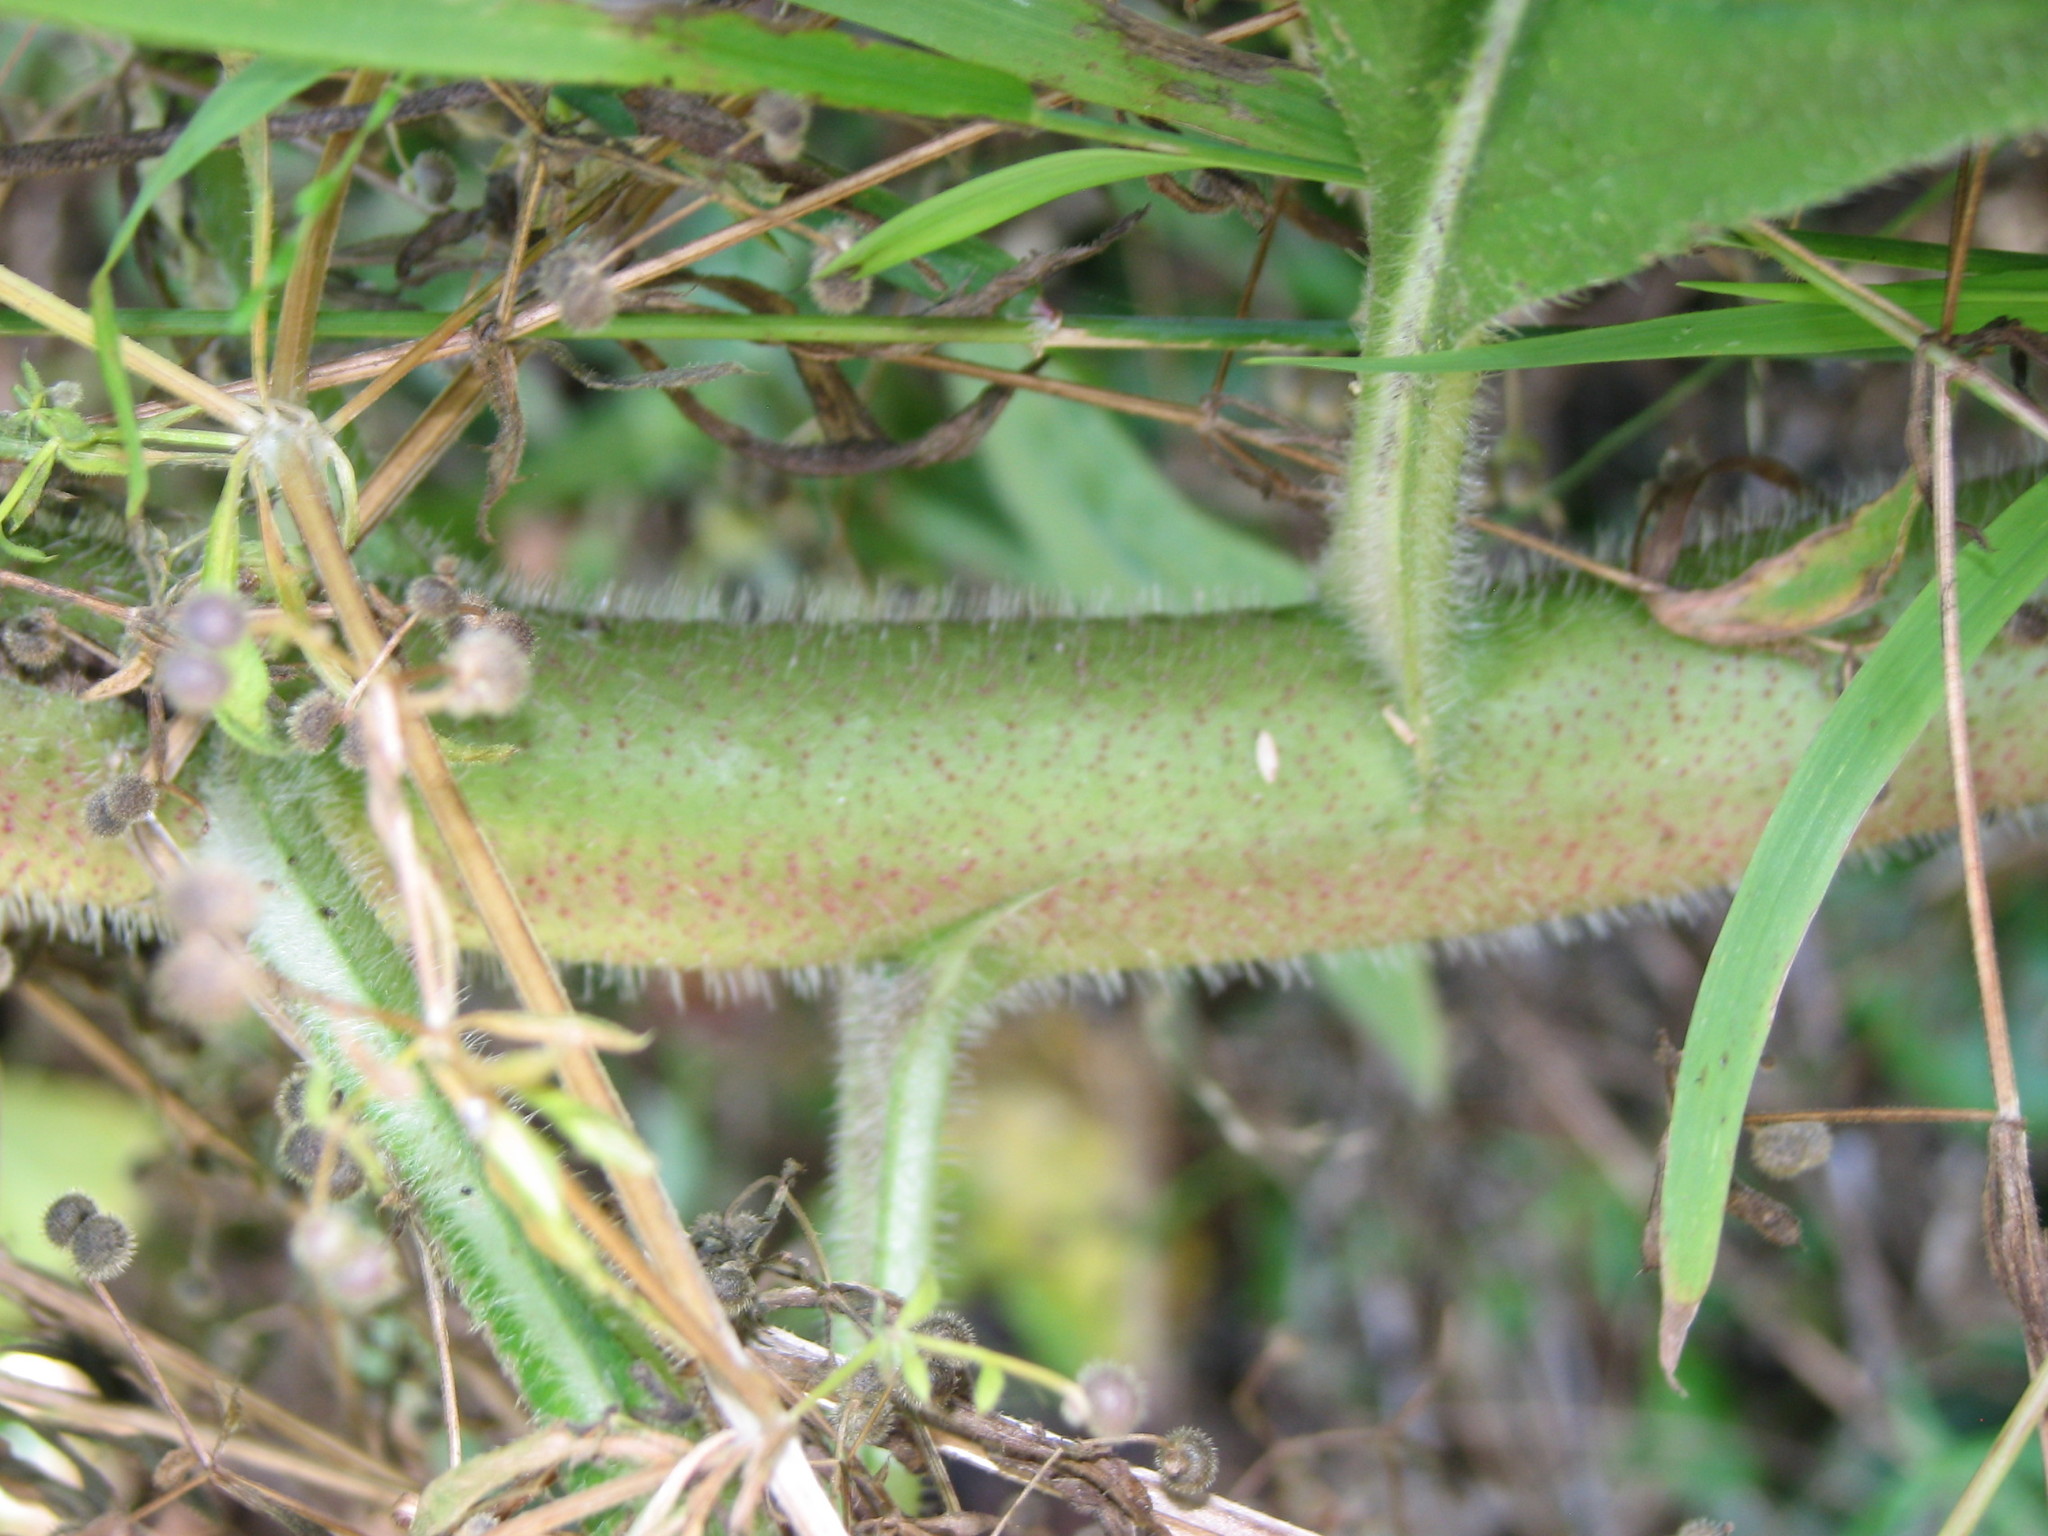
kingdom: Plantae
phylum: Tracheophyta
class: Magnoliopsida
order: Boraginales
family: Boraginaceae
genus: Echium
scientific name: Echium pininana
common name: Giant viper's-bugloss
